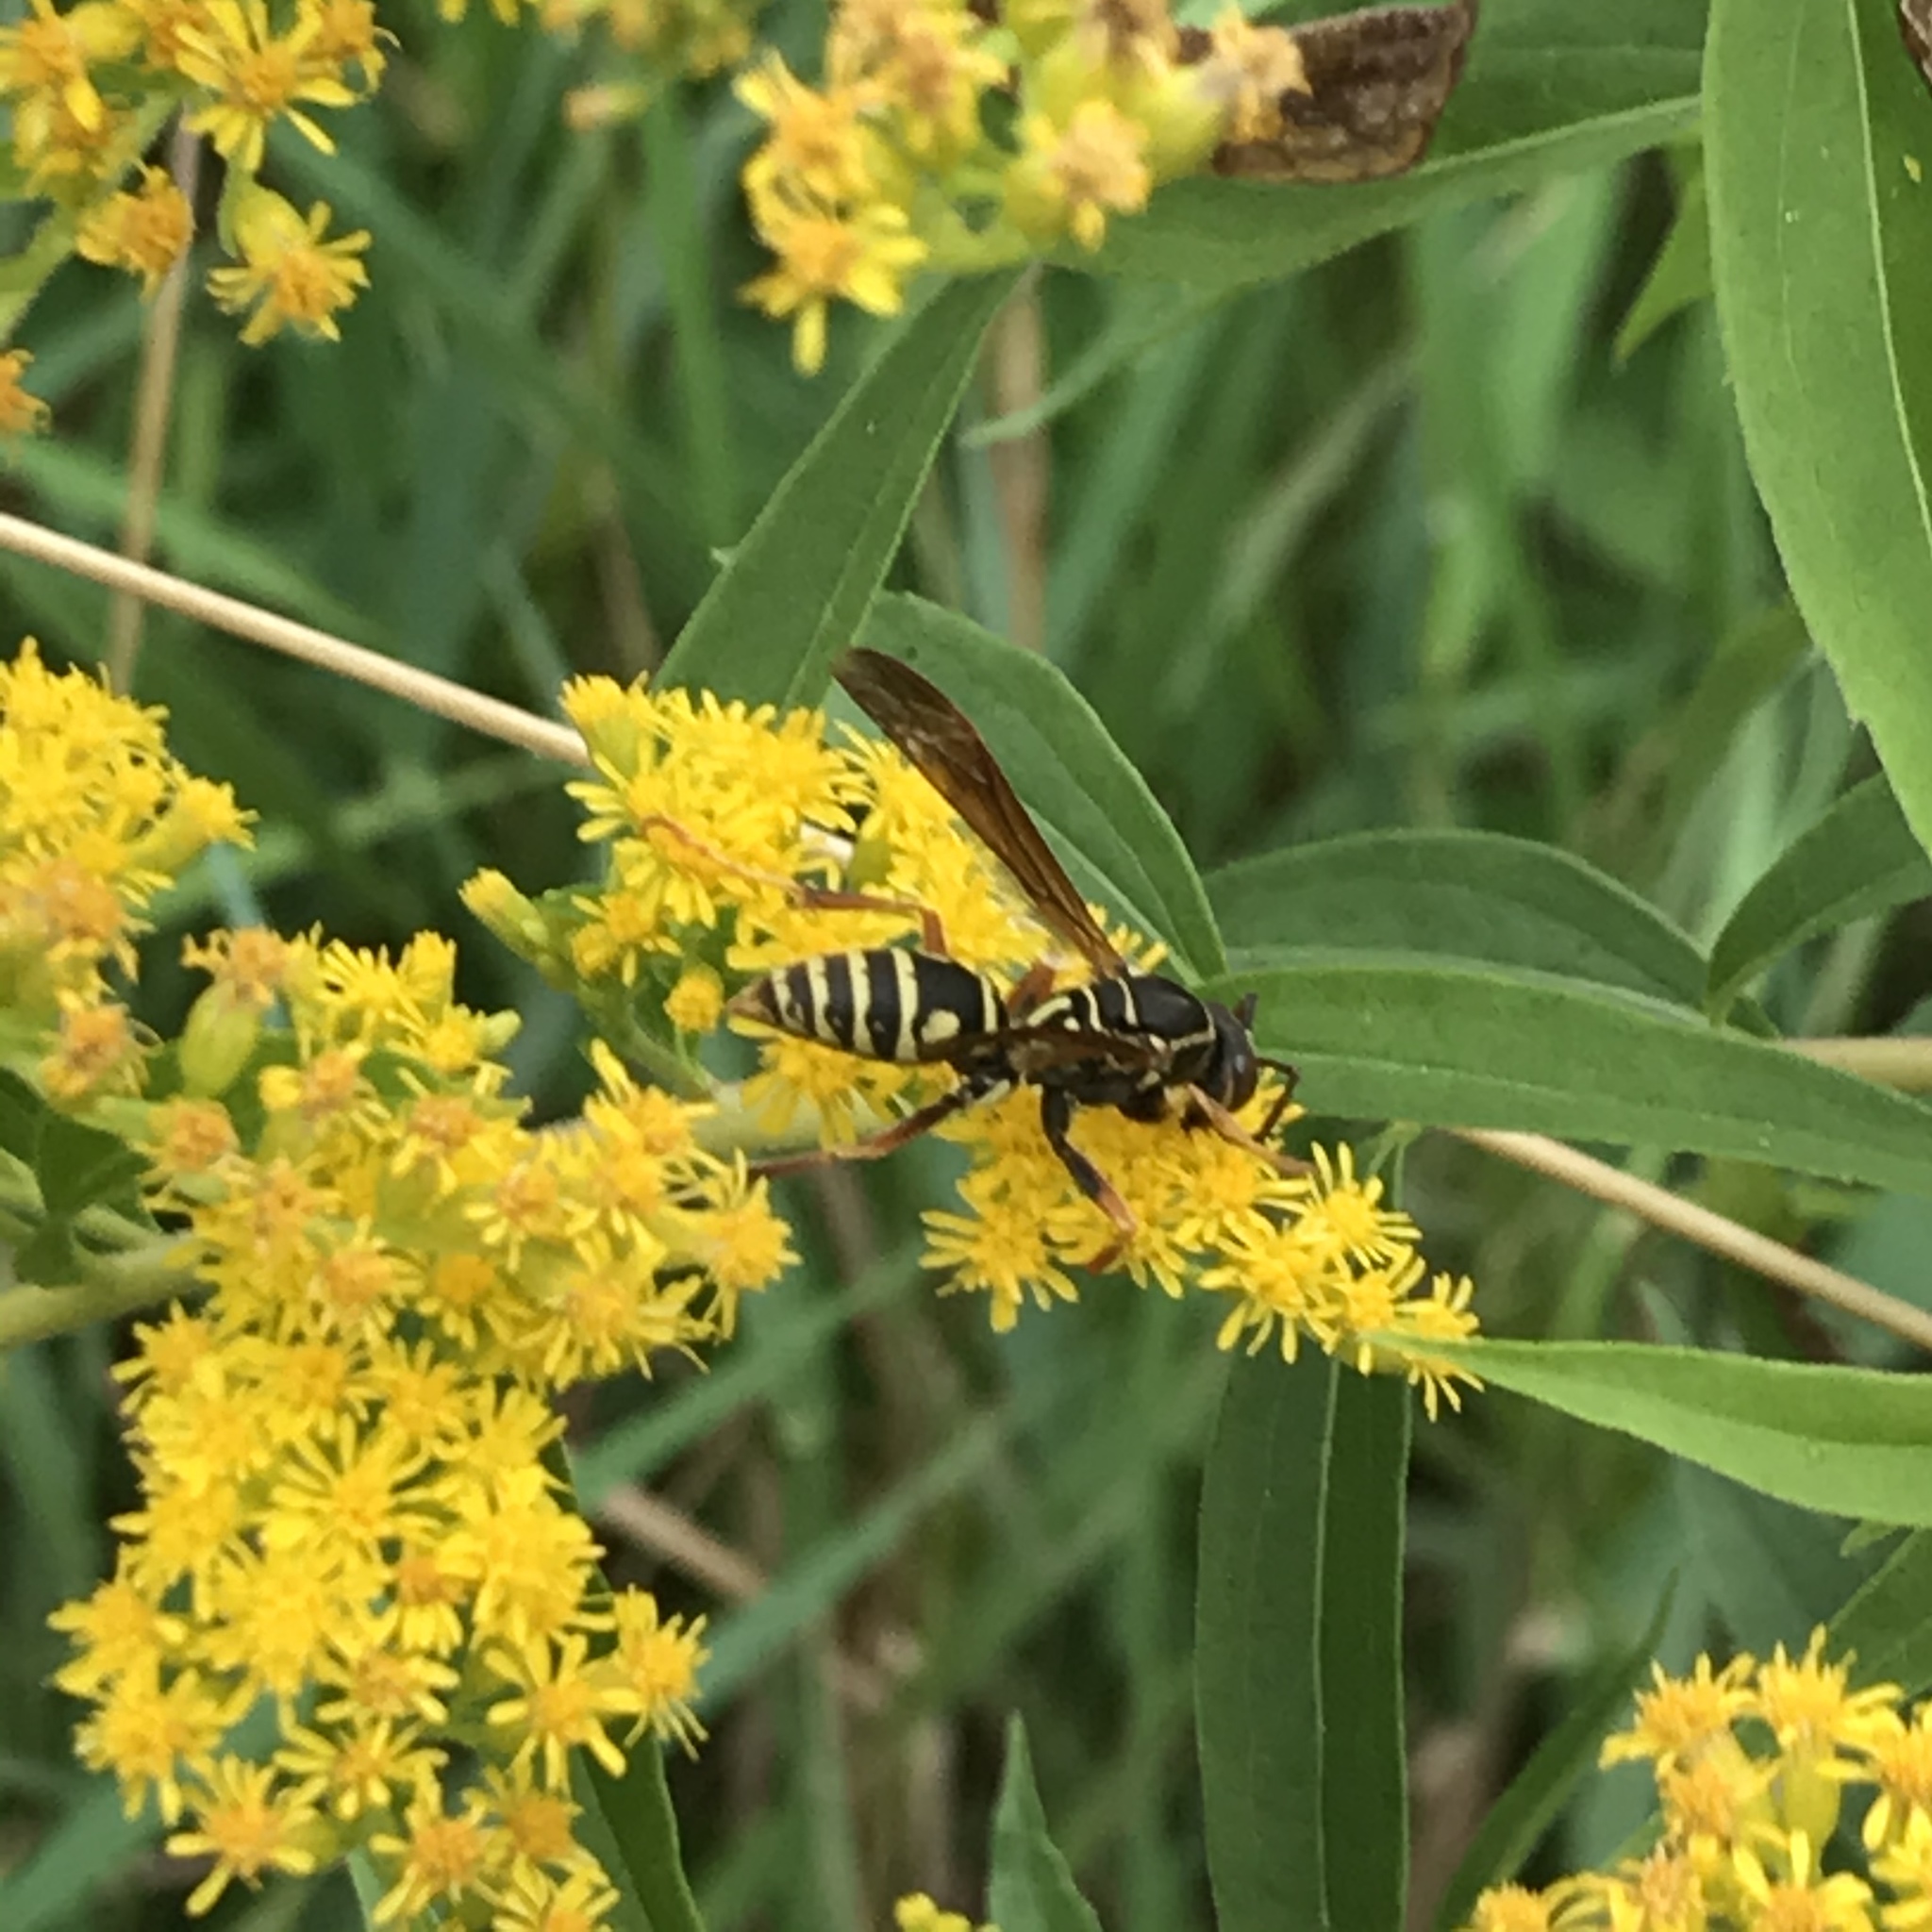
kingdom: Animalia
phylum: Arthropoda
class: Insecta
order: Hymenoptera
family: Eumenidae
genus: Polistes
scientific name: Polistes fuscatus
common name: Dark paper wasp
